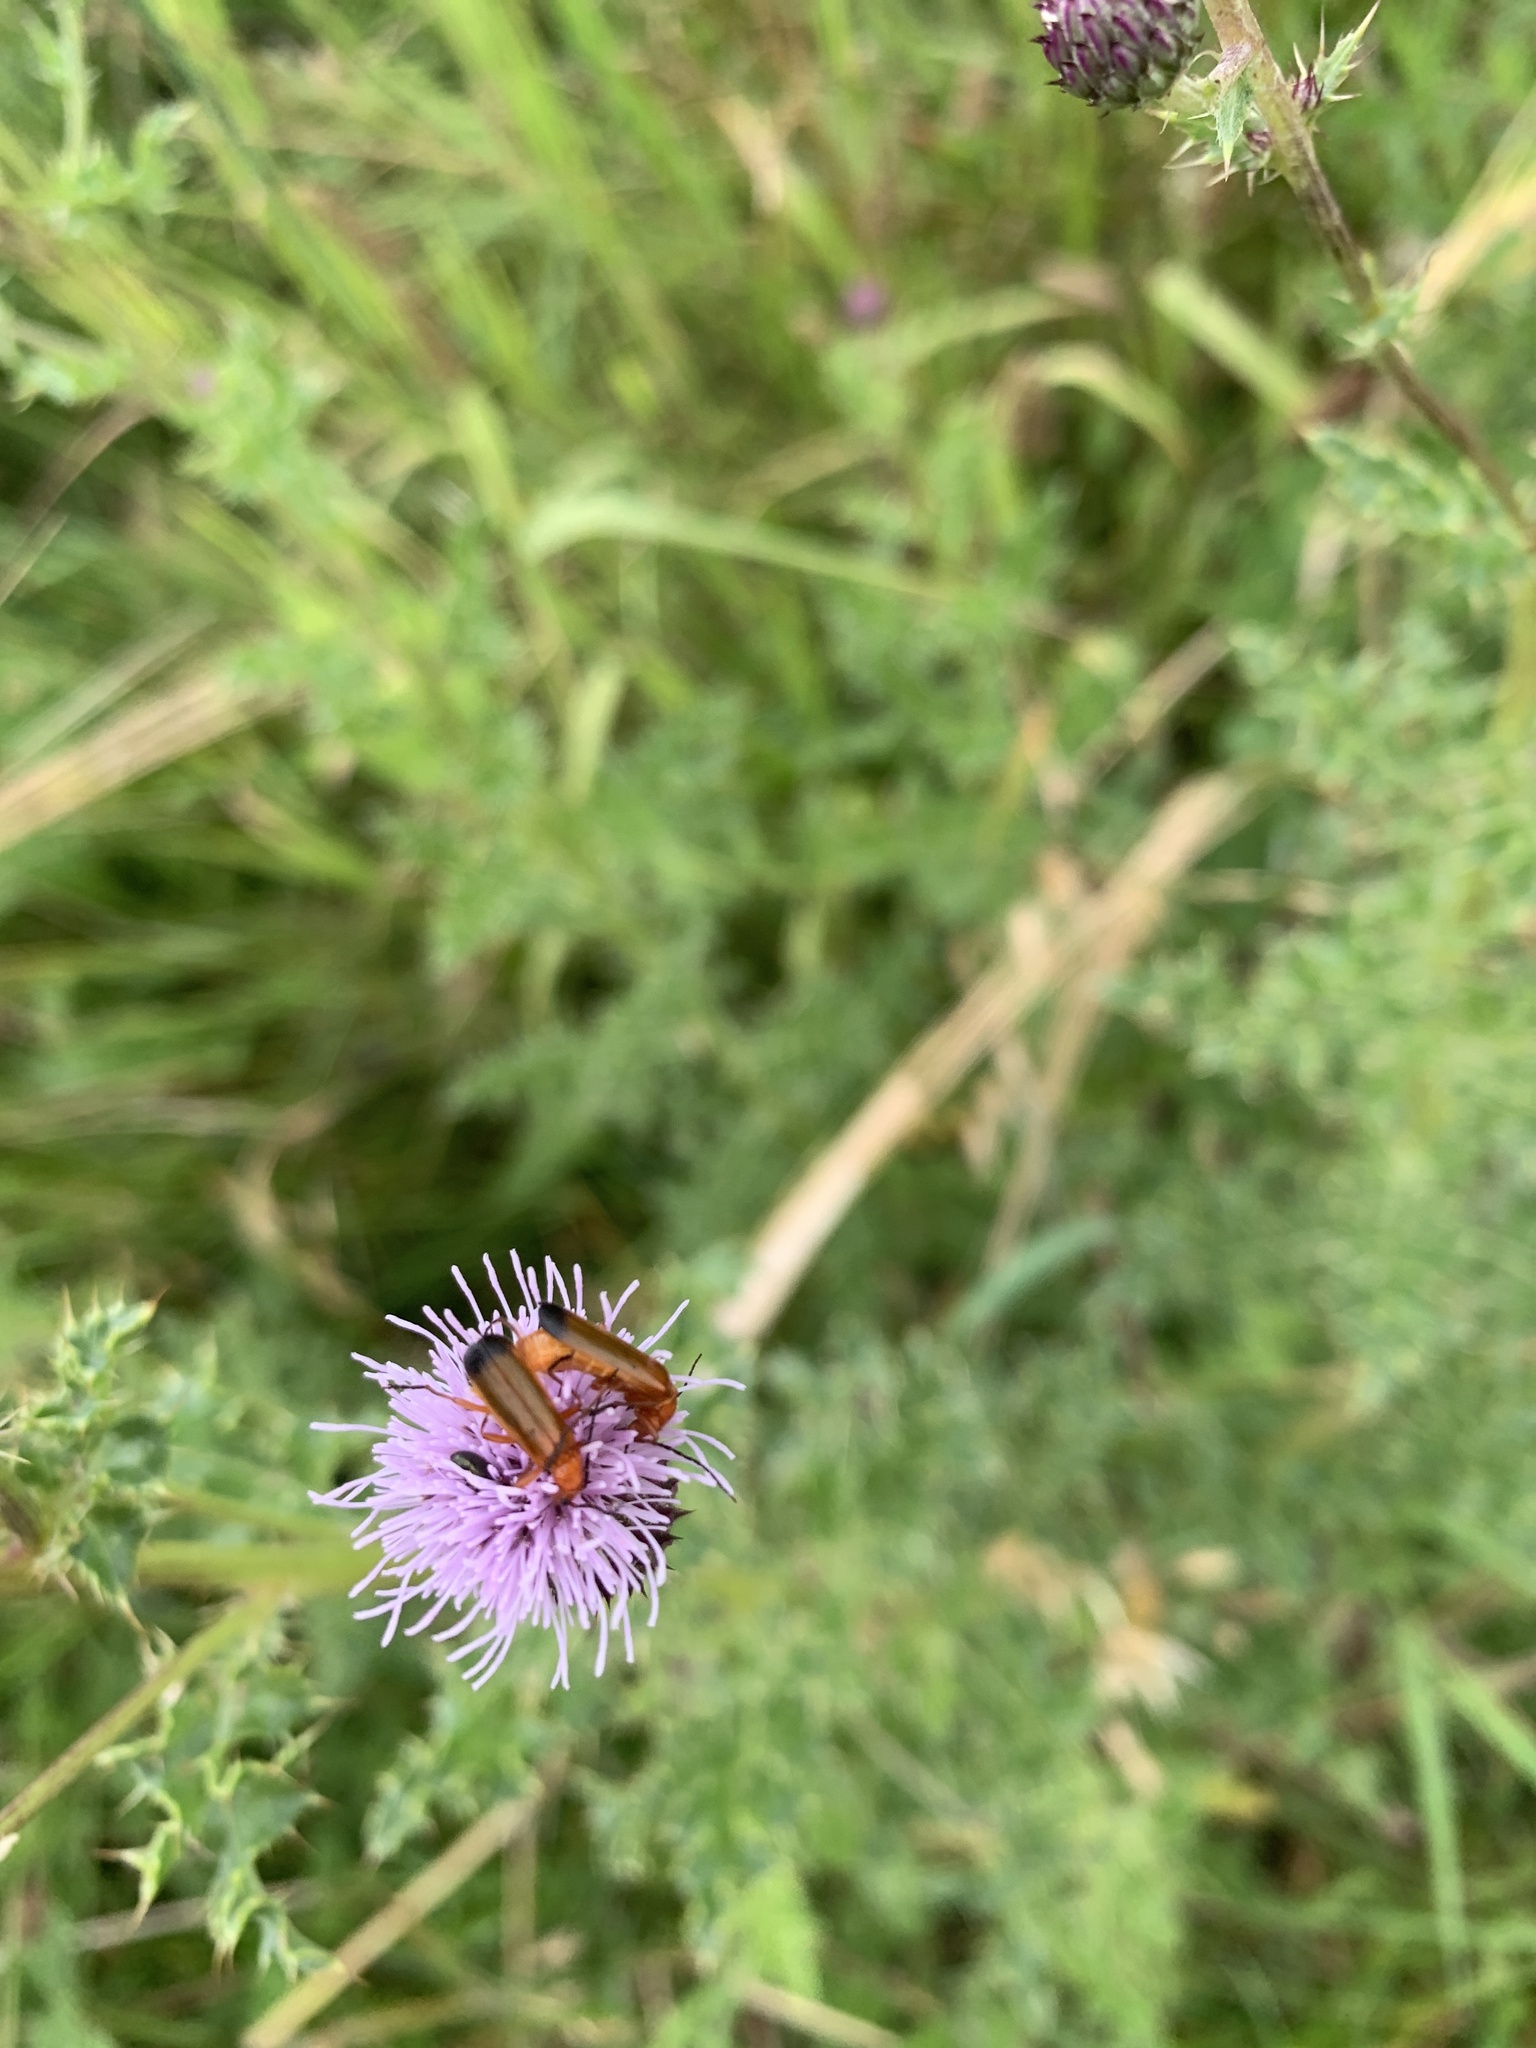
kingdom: Animalia
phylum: Arthropoda
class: Insecta
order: Coleoptera
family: Cantharidae
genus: Rhagonycha
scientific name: Rhagonycha fulva
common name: Common red soldier beetle
